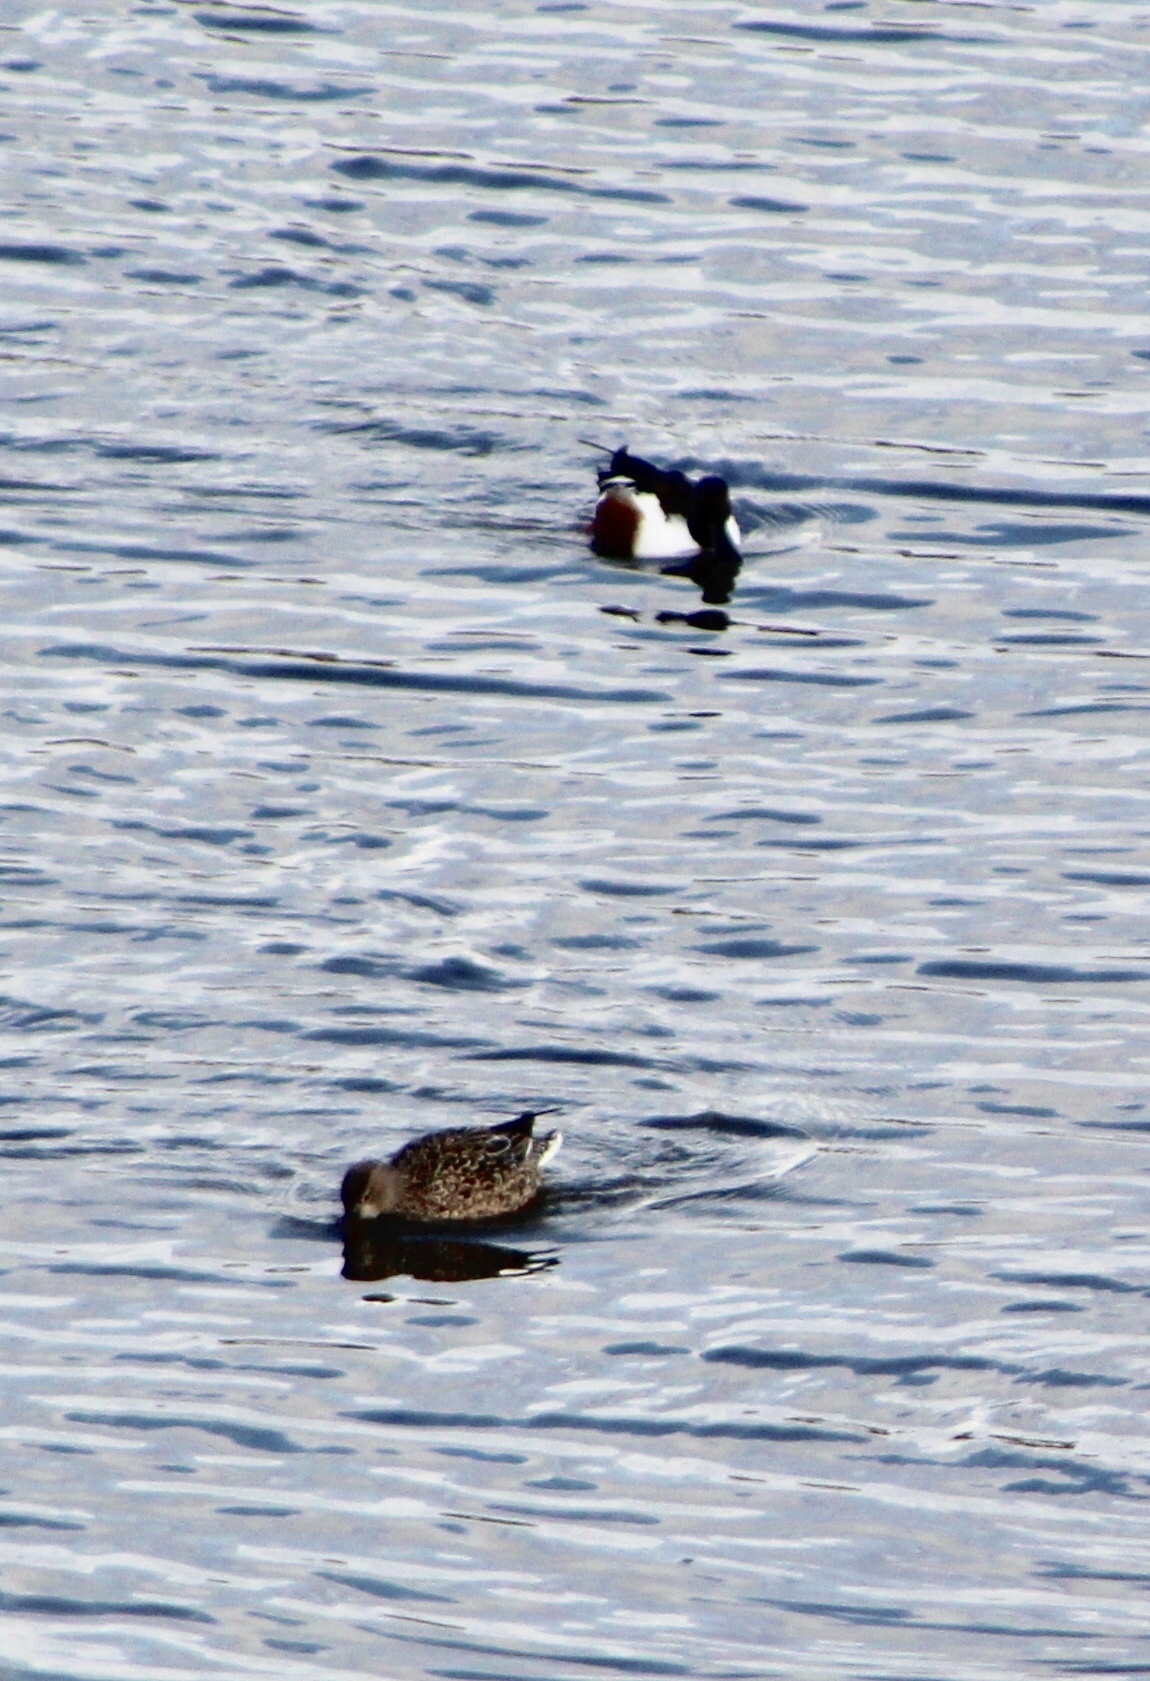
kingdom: Animalia
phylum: Chordata
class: Aves
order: Anseriformes
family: Anatidae
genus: Spatula
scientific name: Spatula clypeata
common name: Northern shoveler
